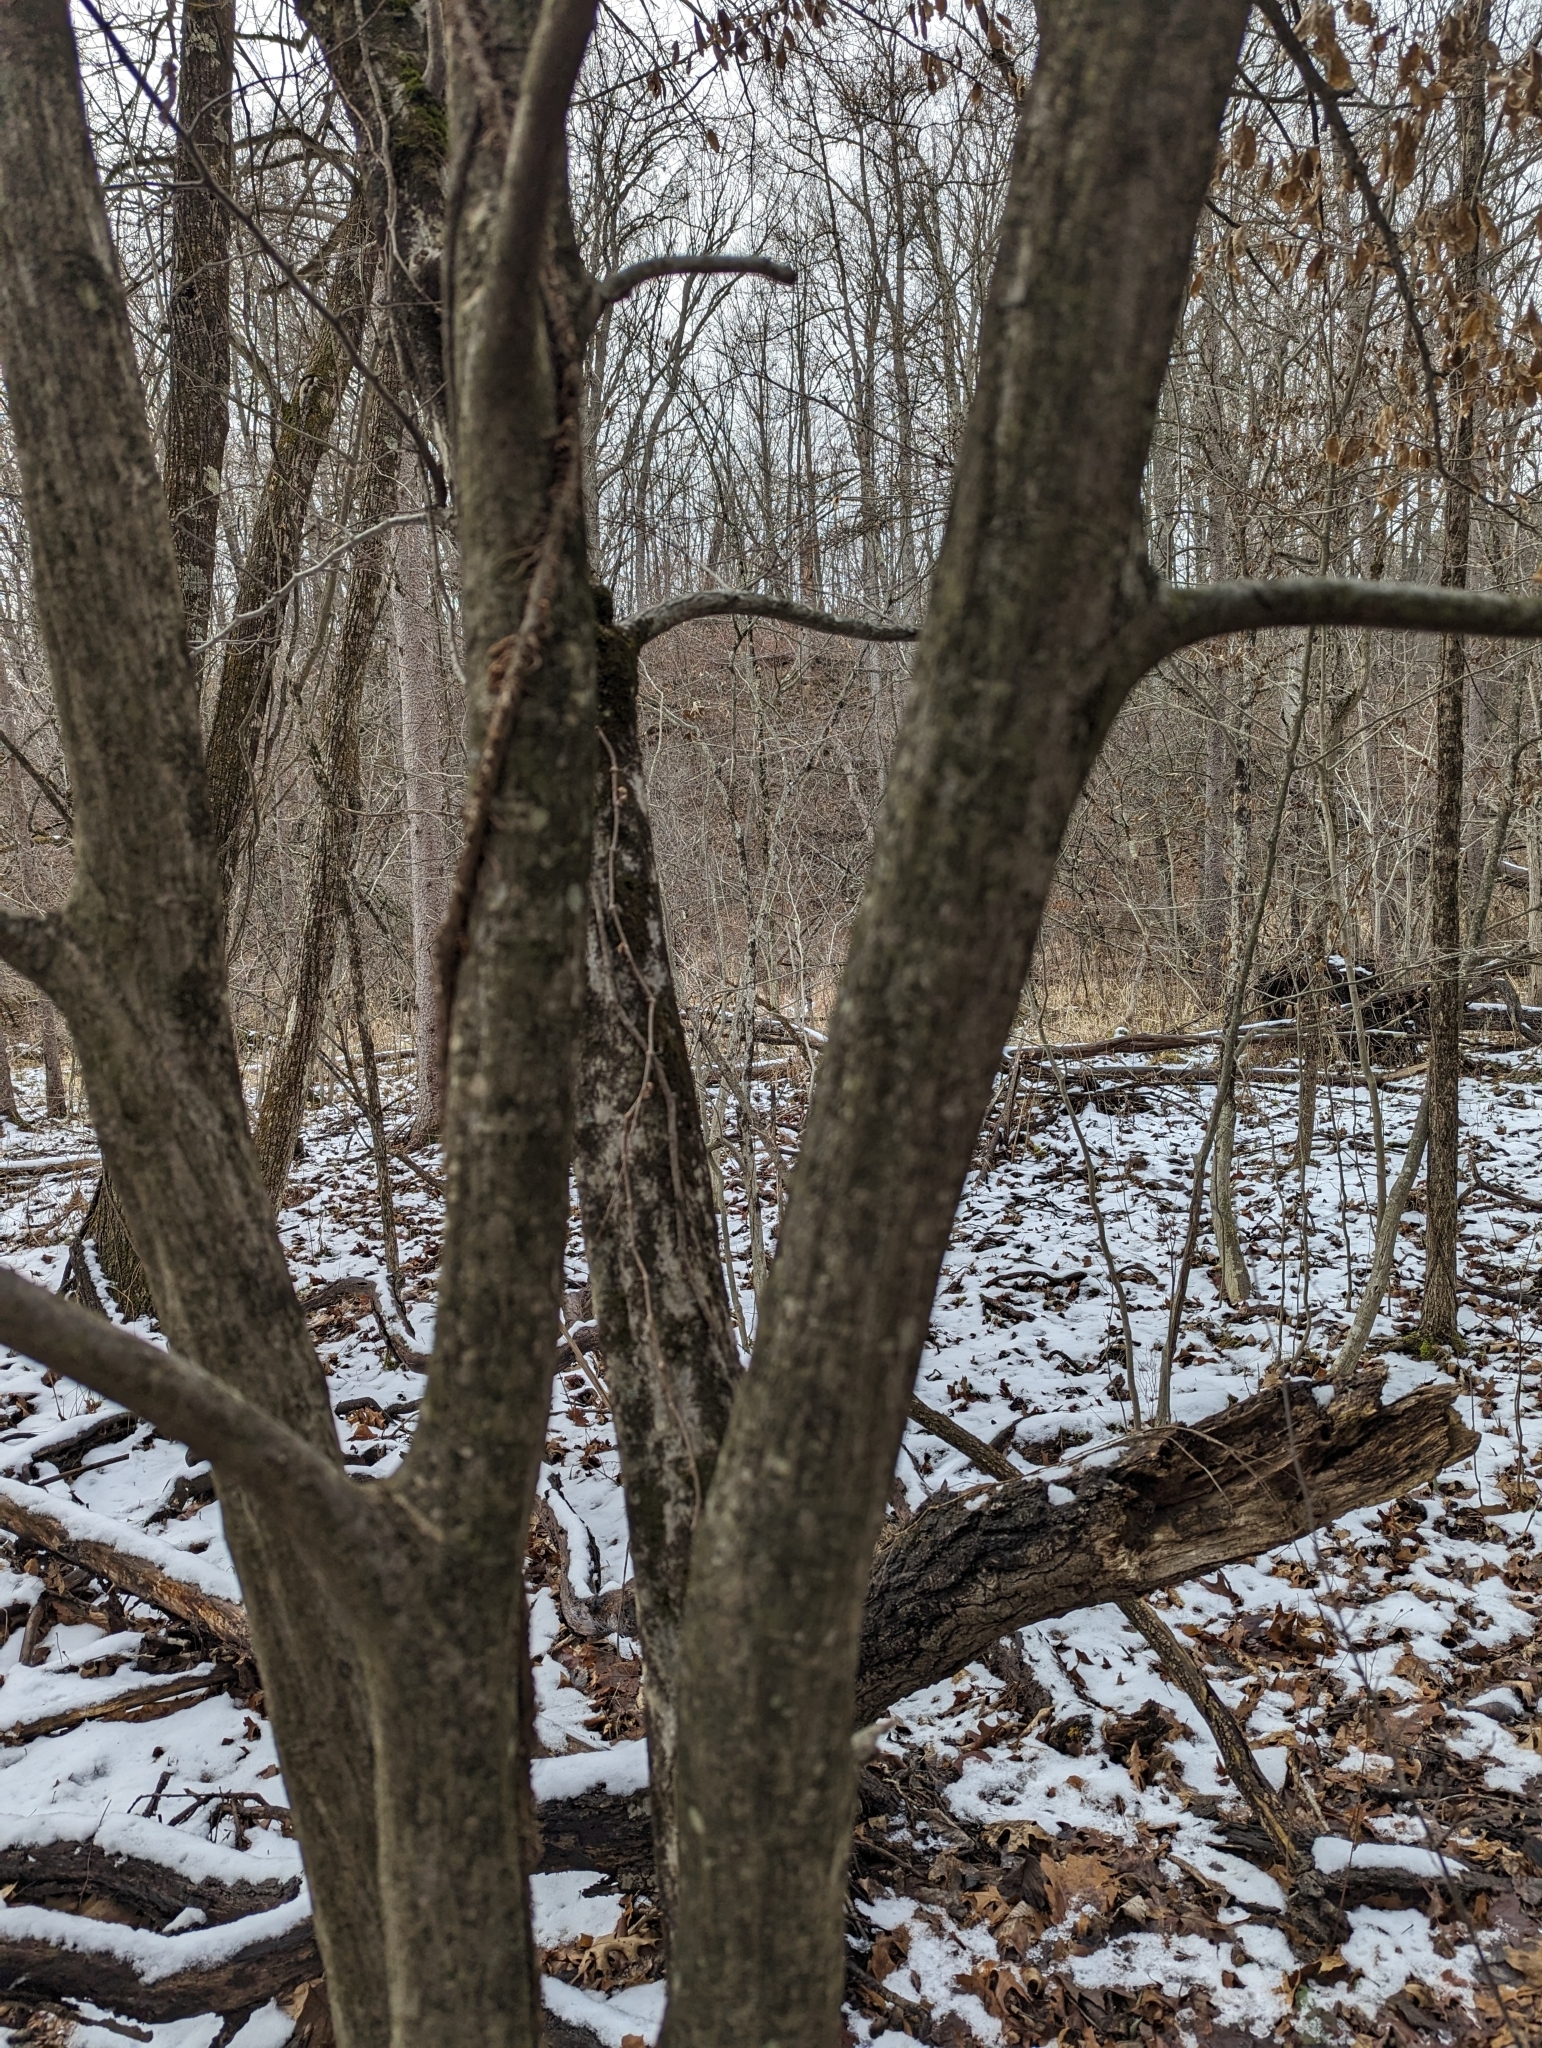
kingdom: Plantae
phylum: Tracheophyta
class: Magnoliopsida
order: Fagales
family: Betulaceae
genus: Carpinus
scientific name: Carpinus caroliniana
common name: American hornbeam
